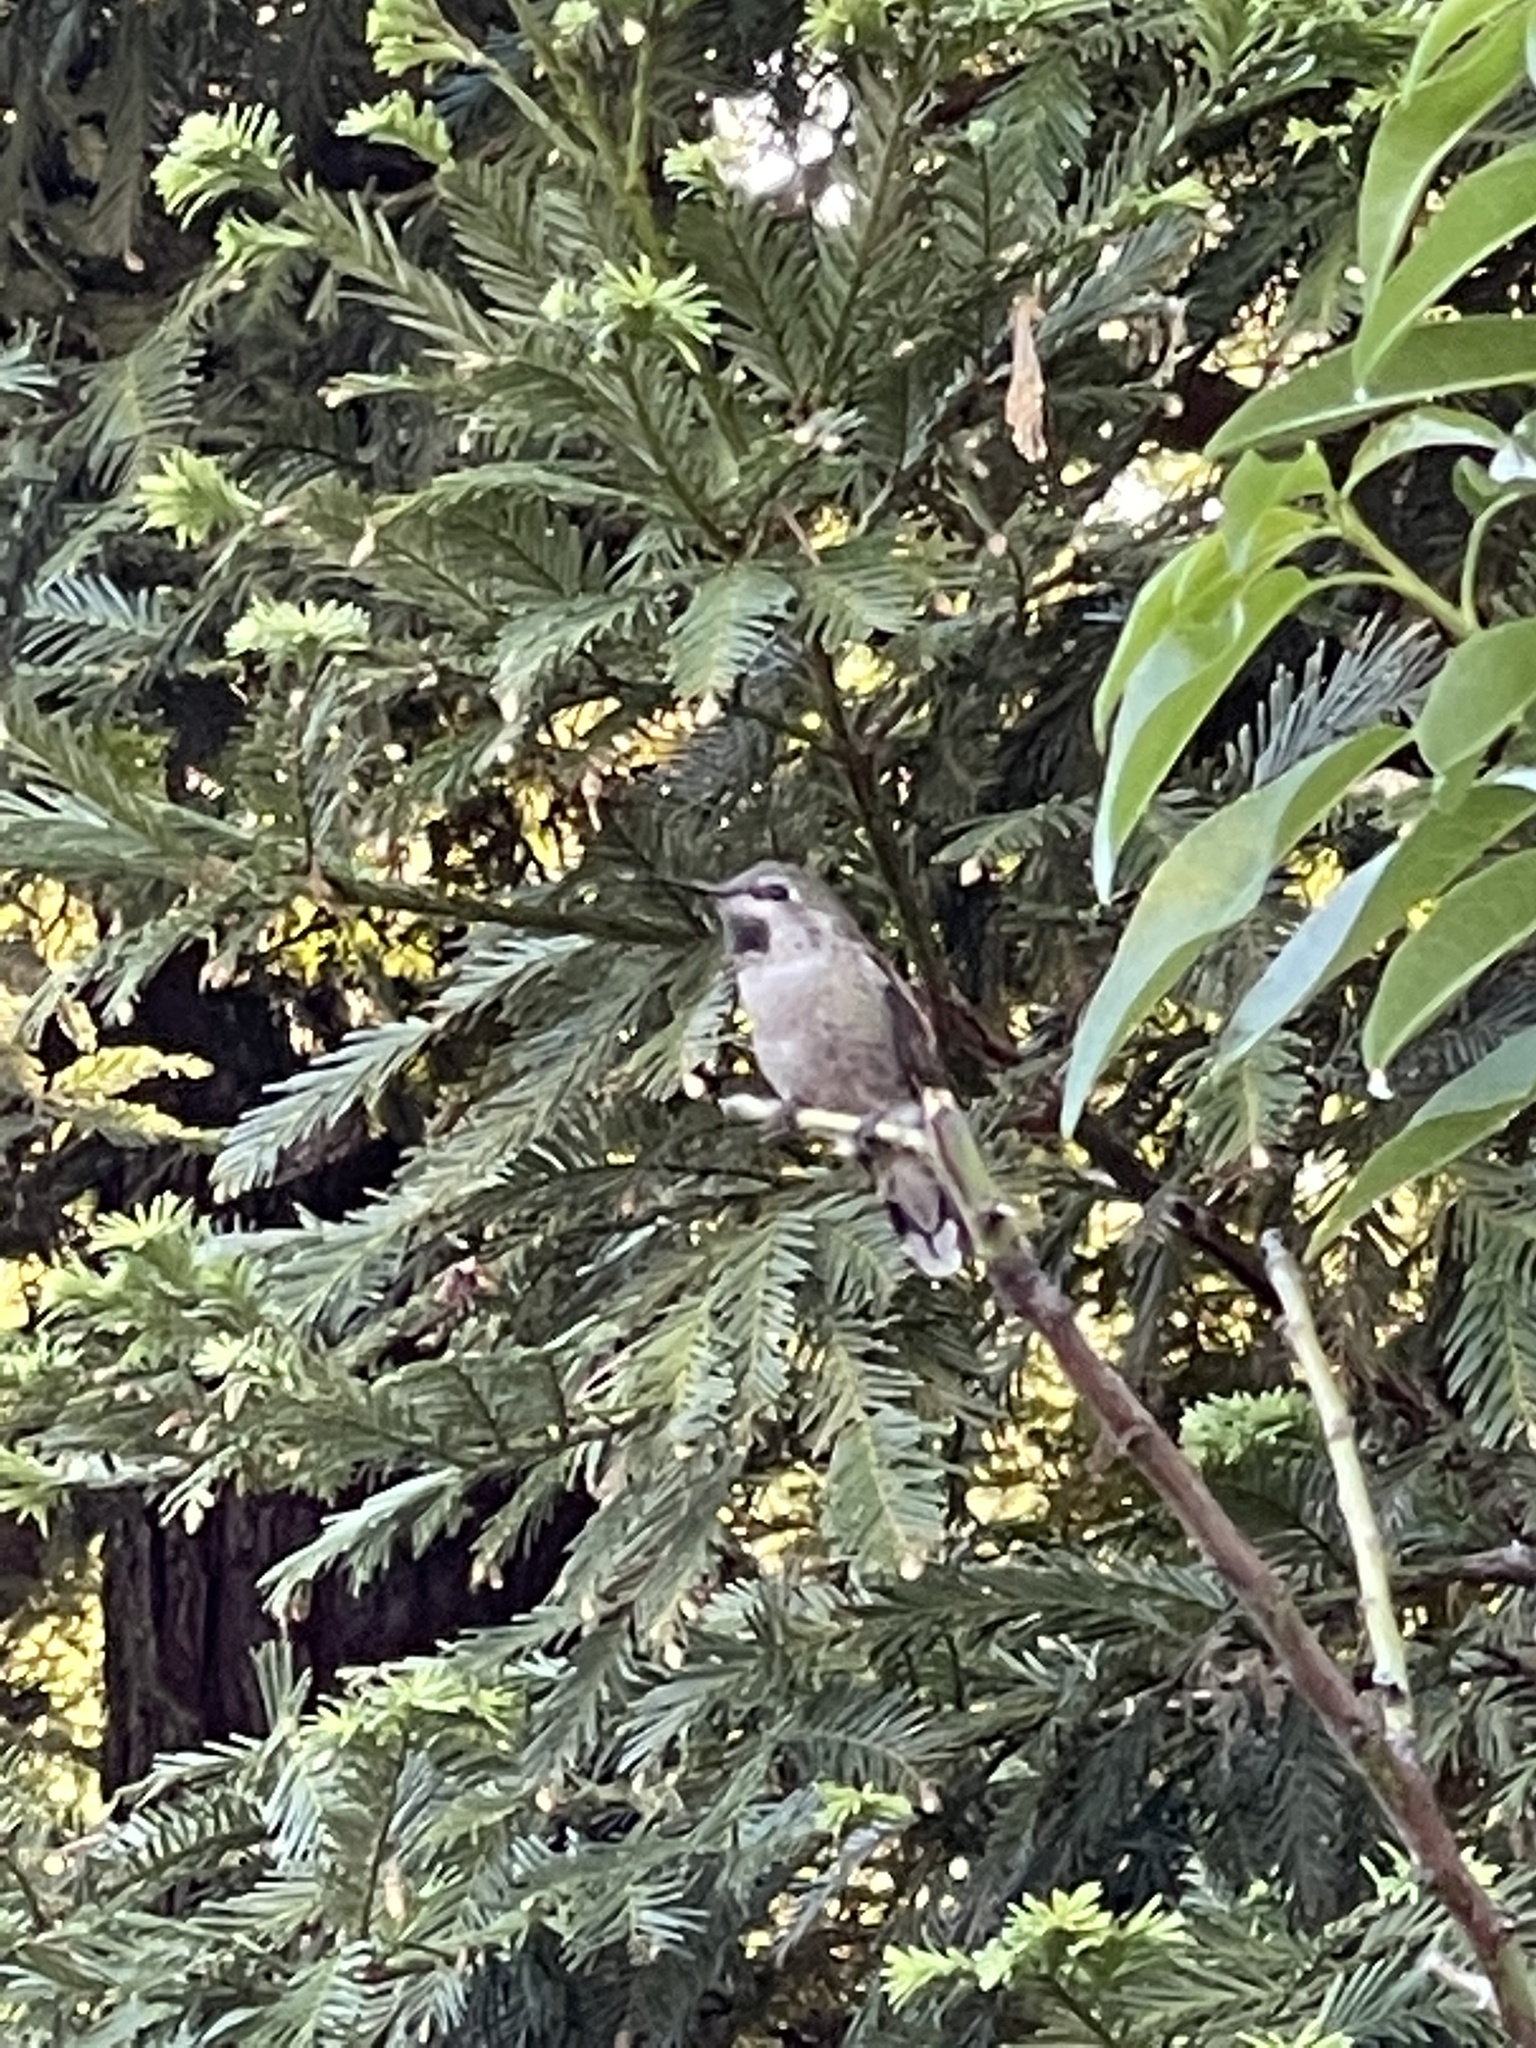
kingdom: Animalia
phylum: Chordata
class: Aves
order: Apodiformes
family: Trochilidae
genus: Calypte
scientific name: Calypte anna
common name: Anna's hummingbird
